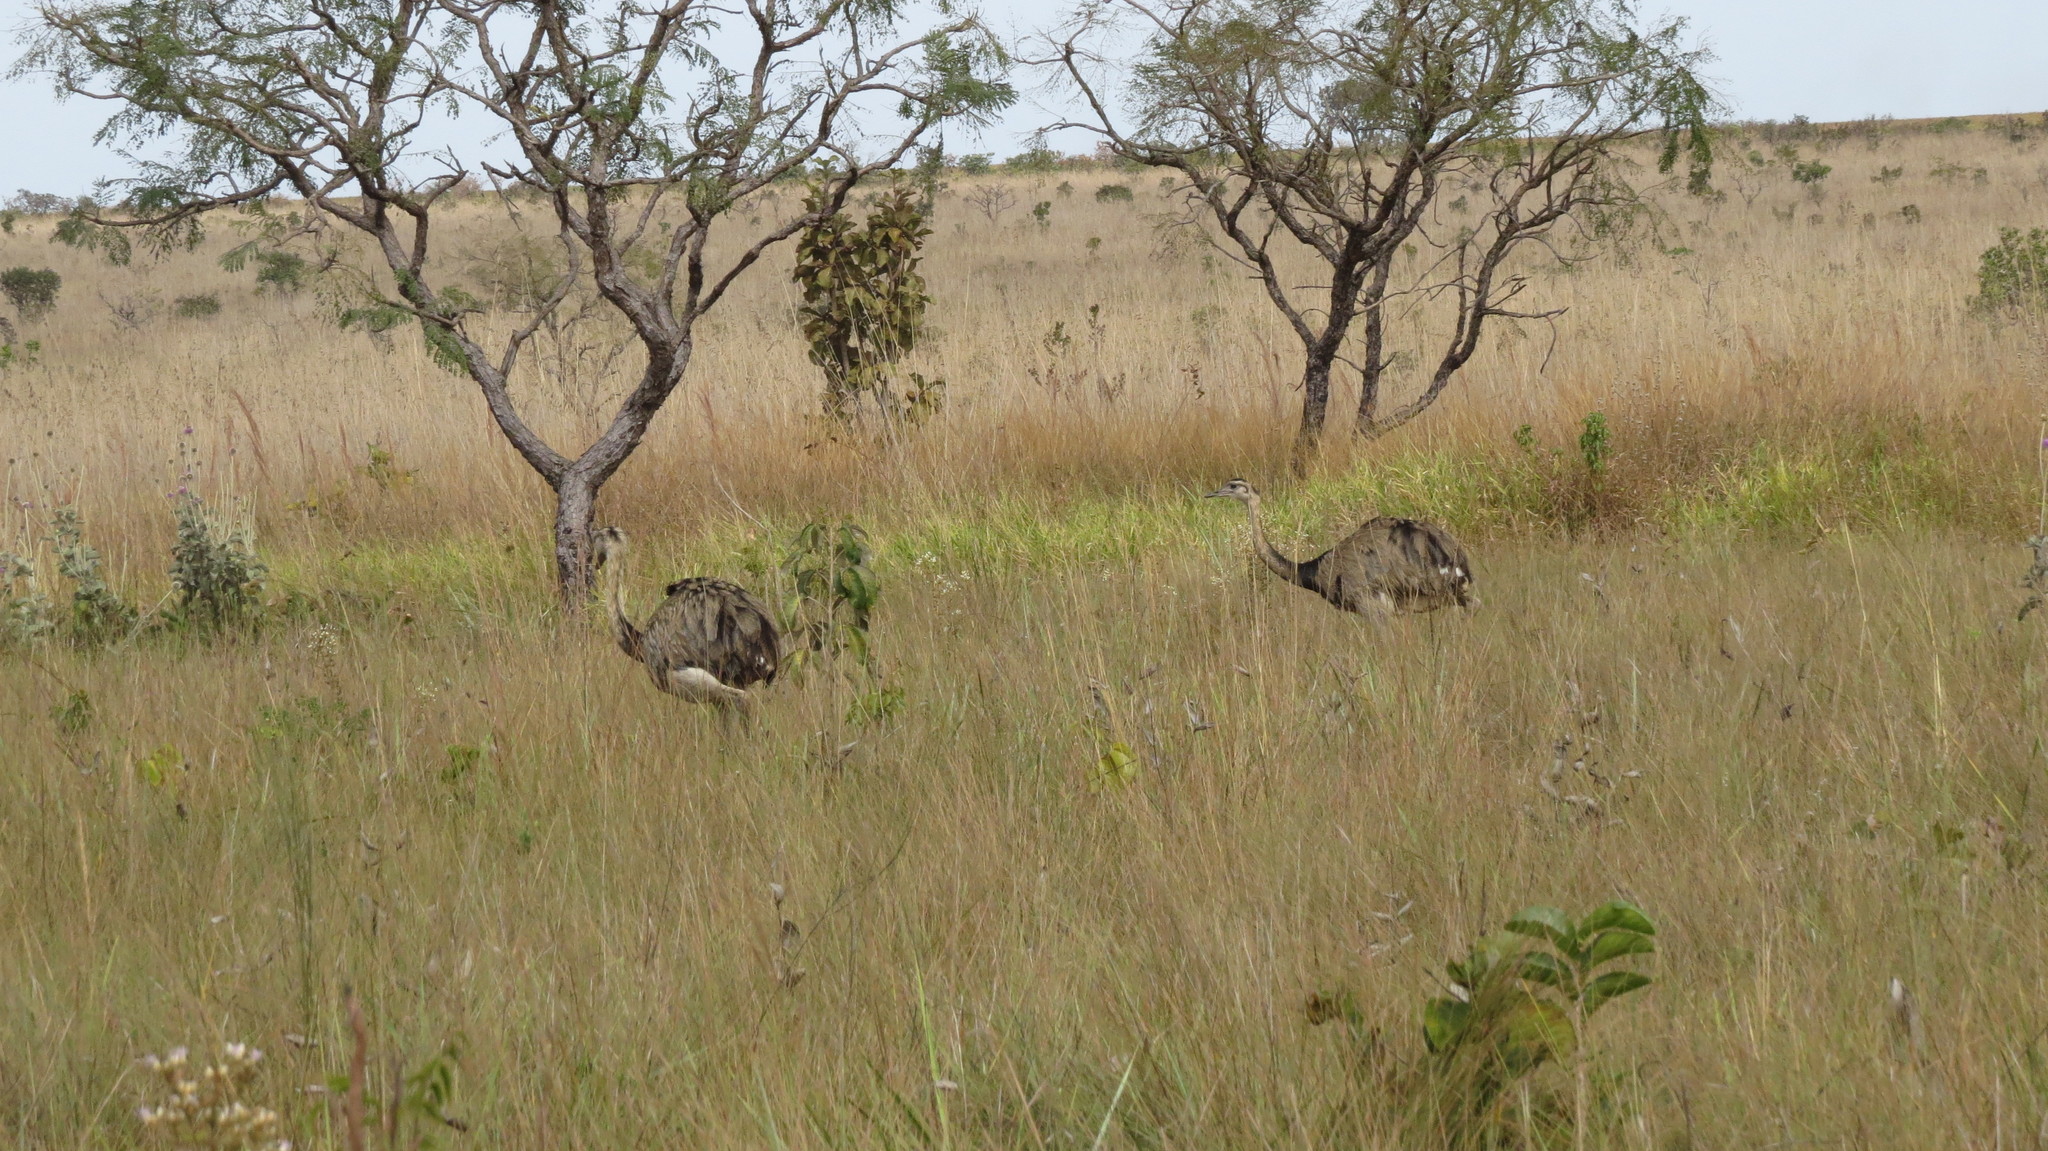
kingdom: Animalia
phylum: Chordata
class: Aves
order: Rheiformes
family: Rheidae
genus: Rhea
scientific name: Rhea americana
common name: Greater rhea
